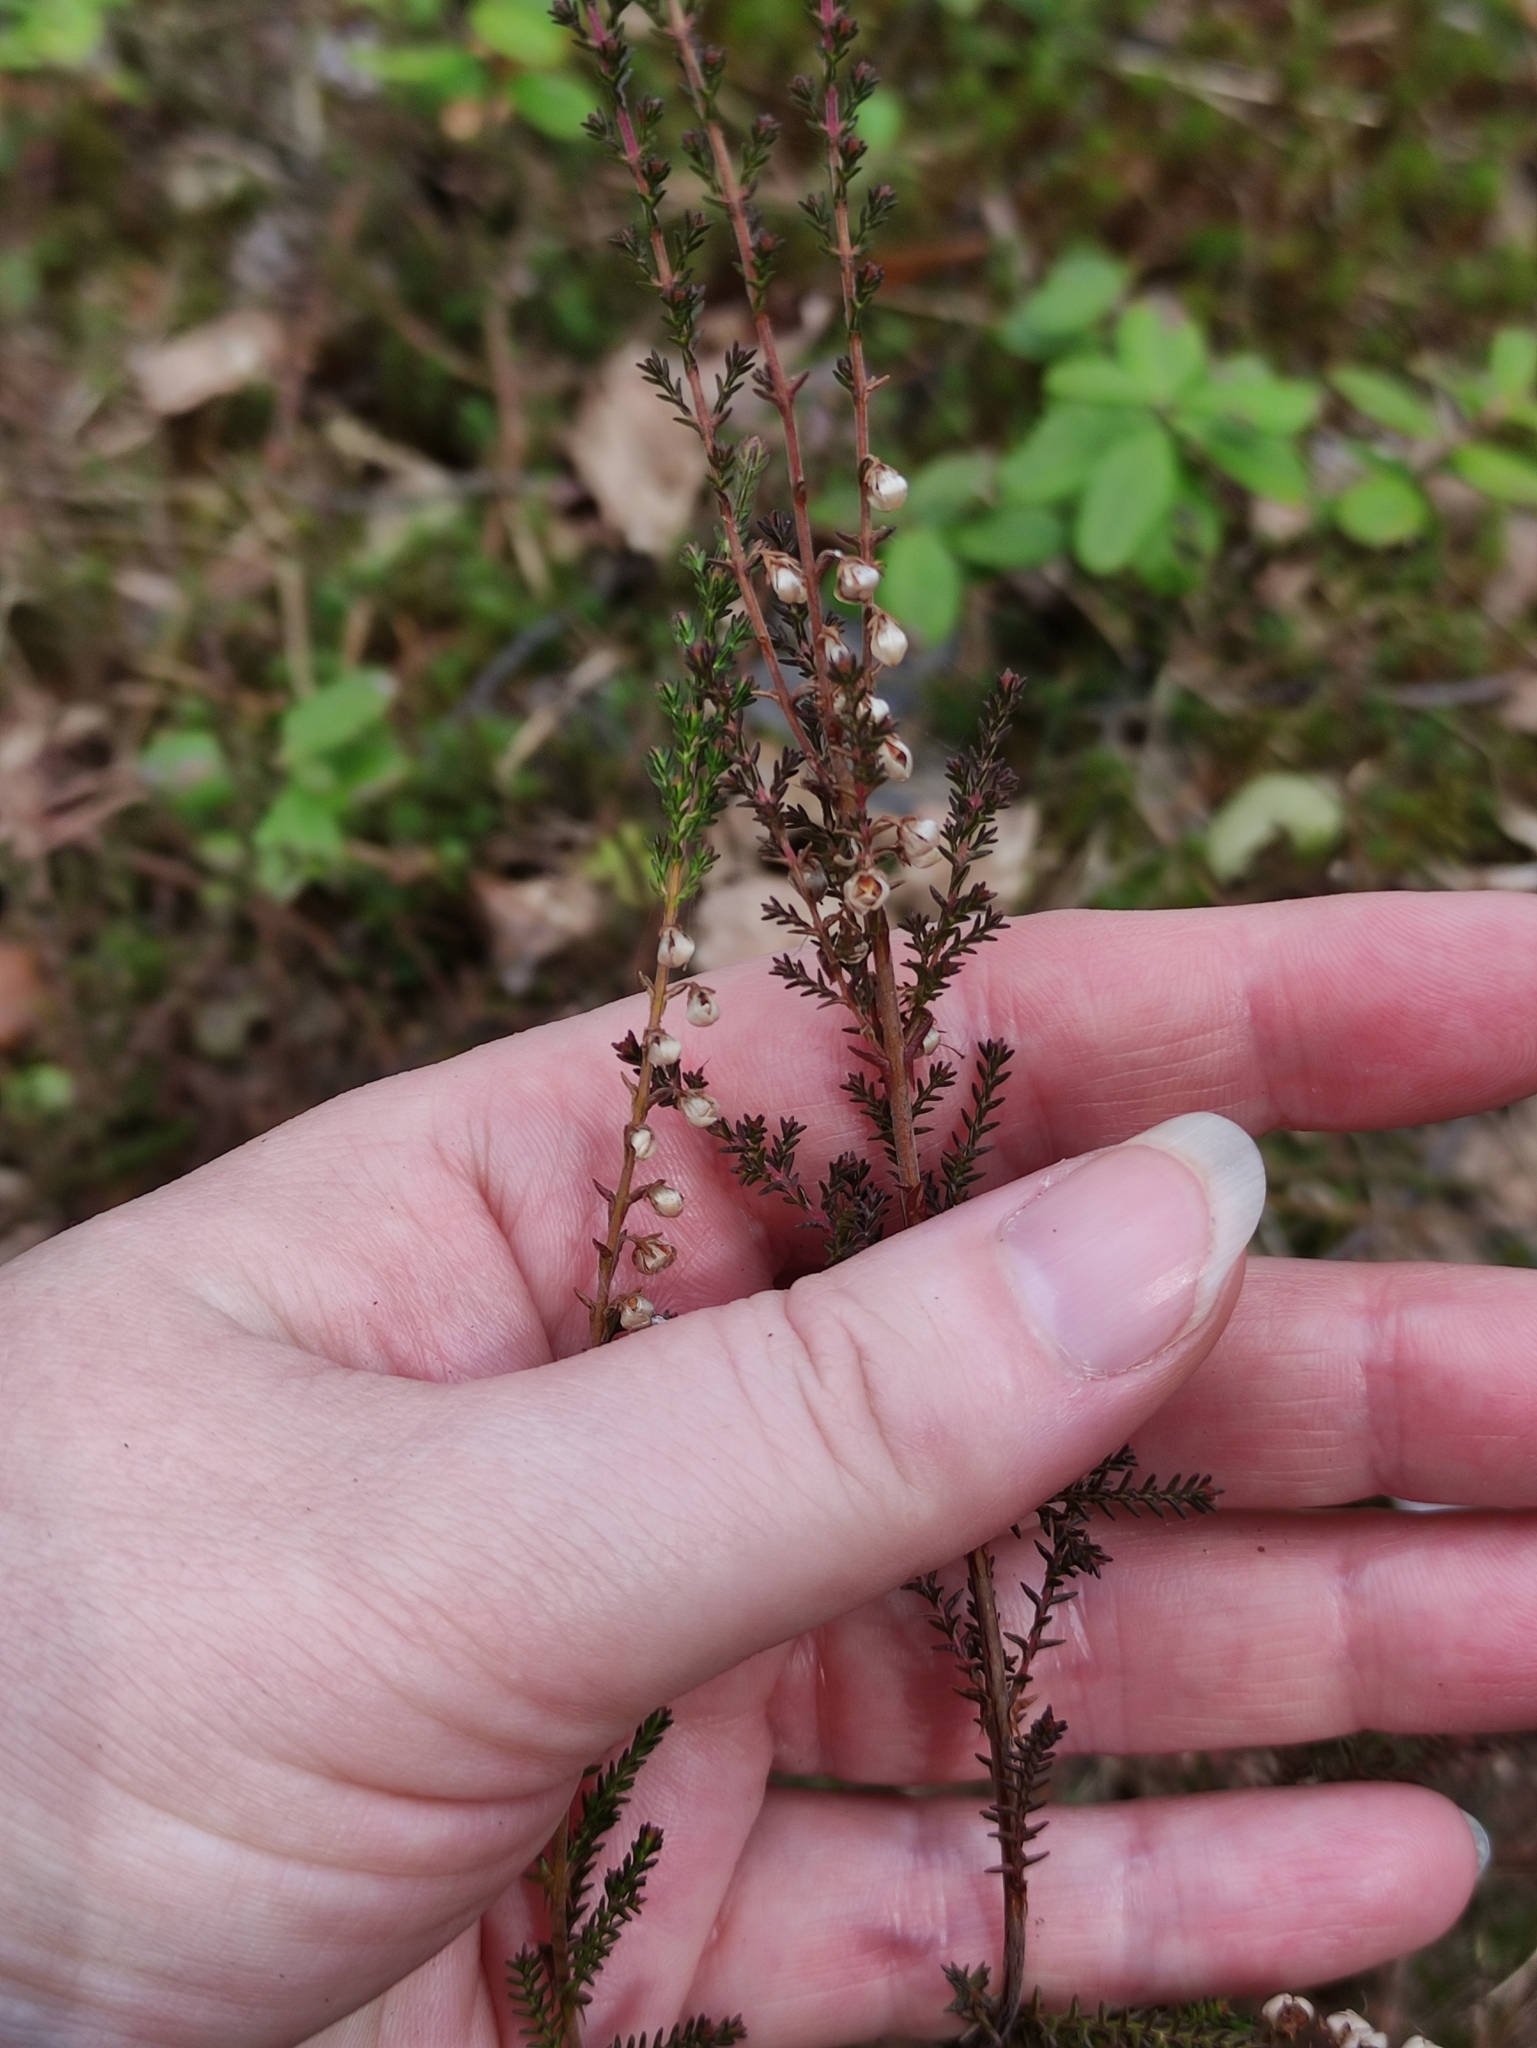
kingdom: Plantae
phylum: Tracheophyta
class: Magnoliopsida
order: Ericales
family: Ericaceae
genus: Calluna
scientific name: Calluna vulgaris
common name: Heather
